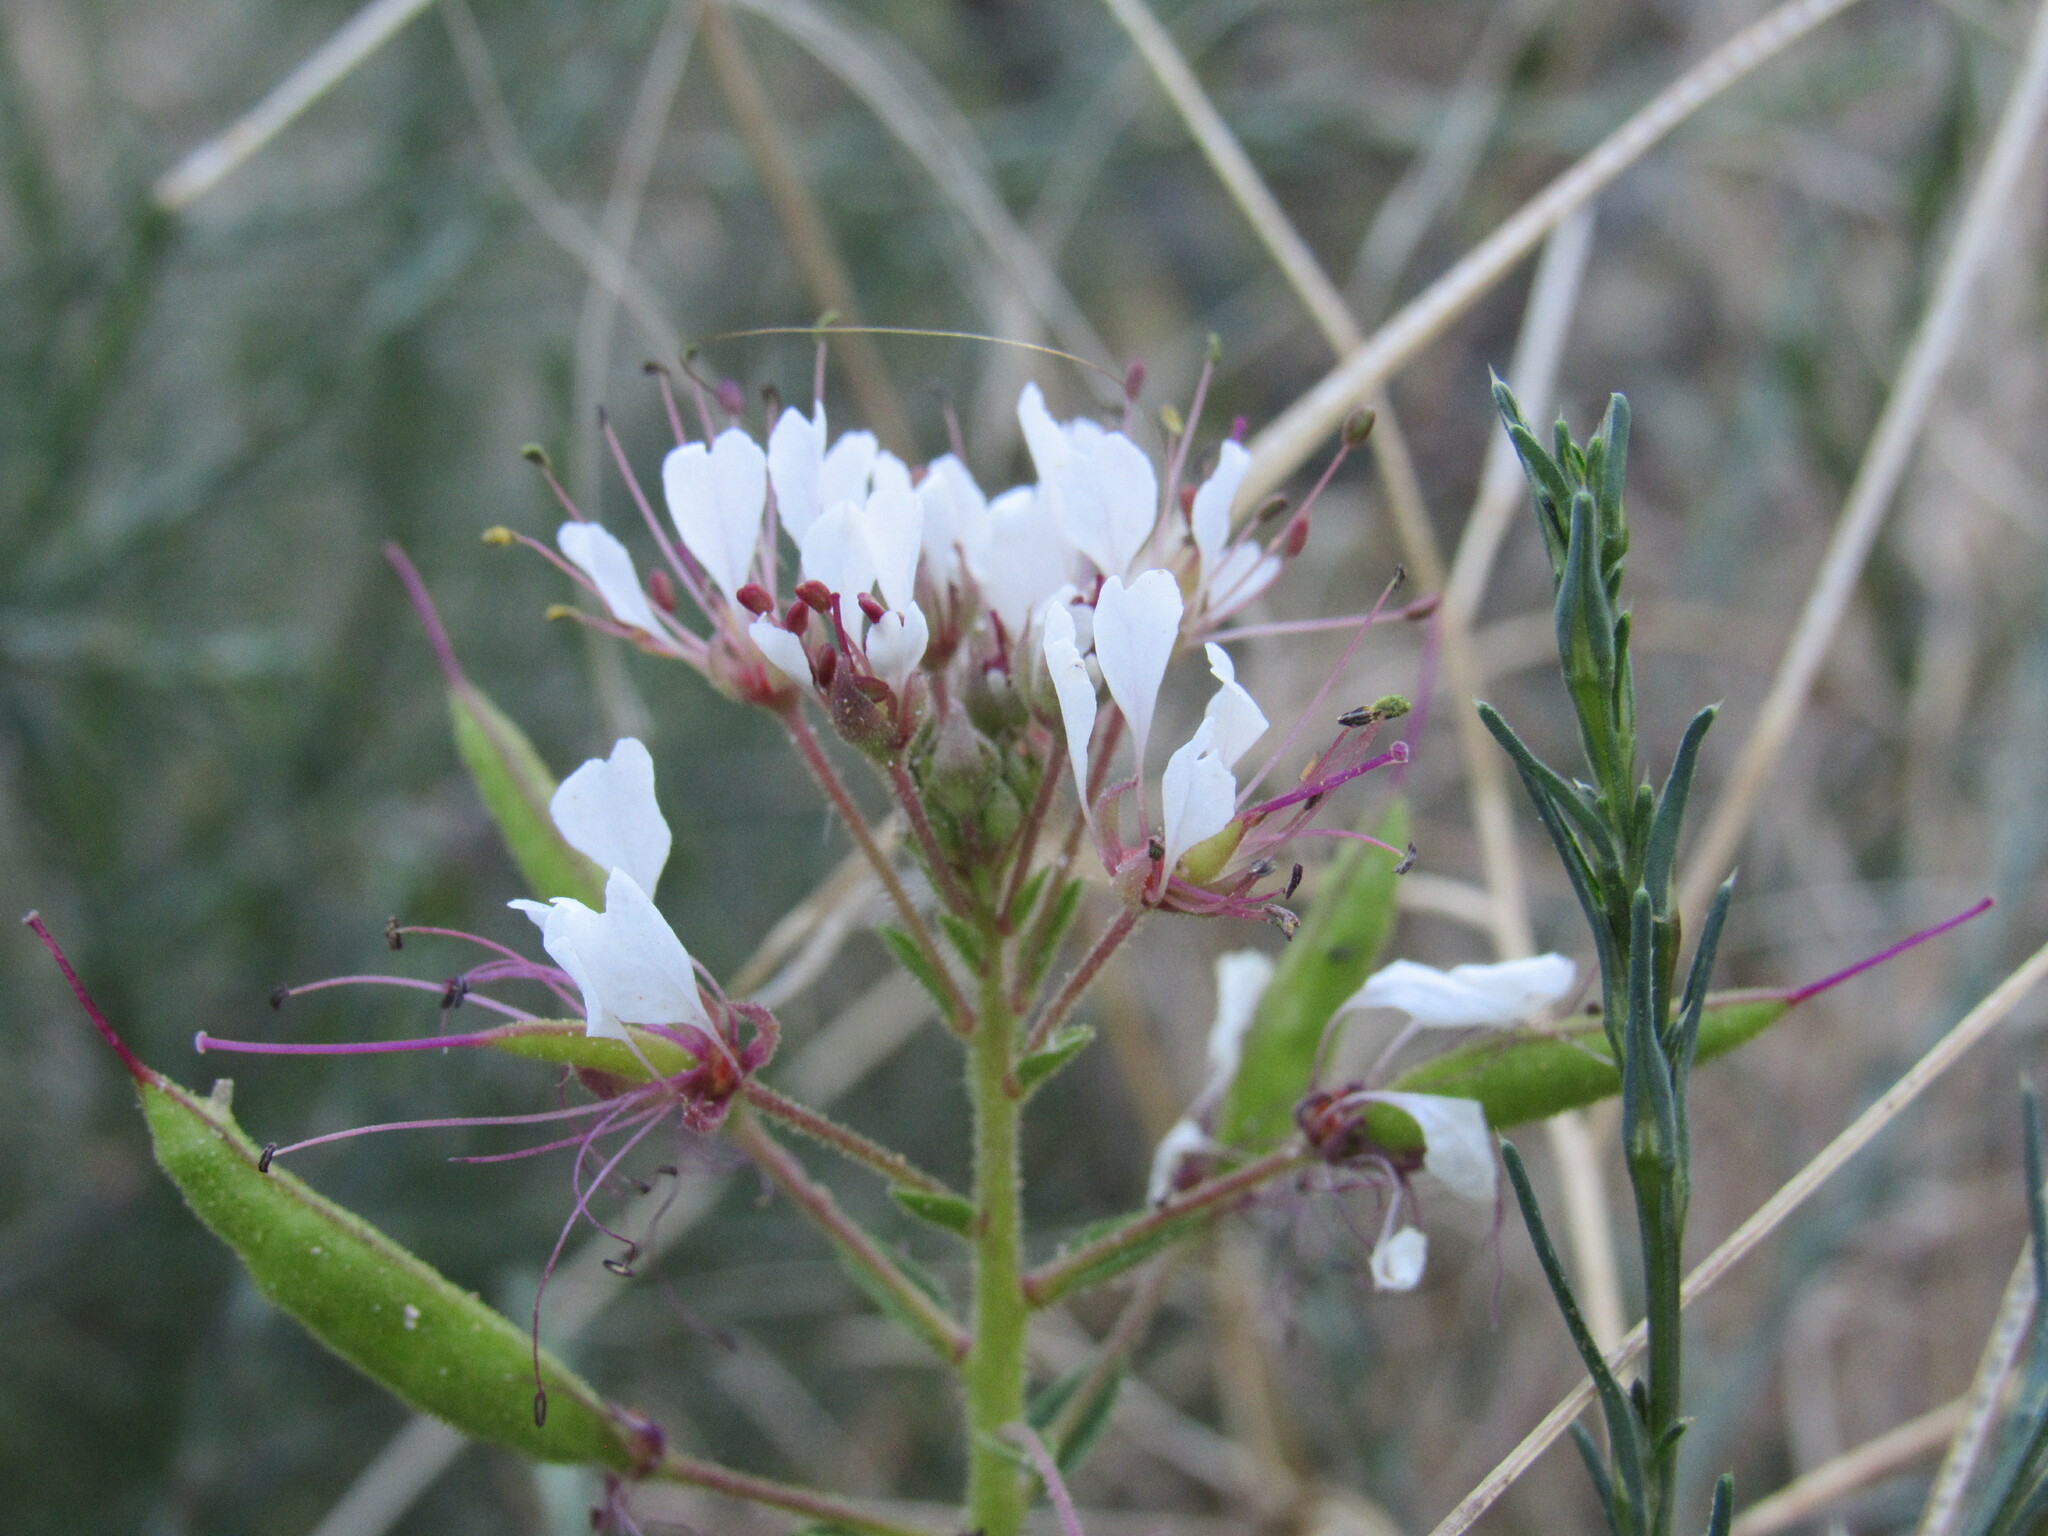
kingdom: Plantae
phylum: Tracheophyta
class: Magnoliopsida
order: Brassicales
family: Cleomaceae
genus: Polanisia
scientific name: Polanisia dodecandra
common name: Clammyweed
